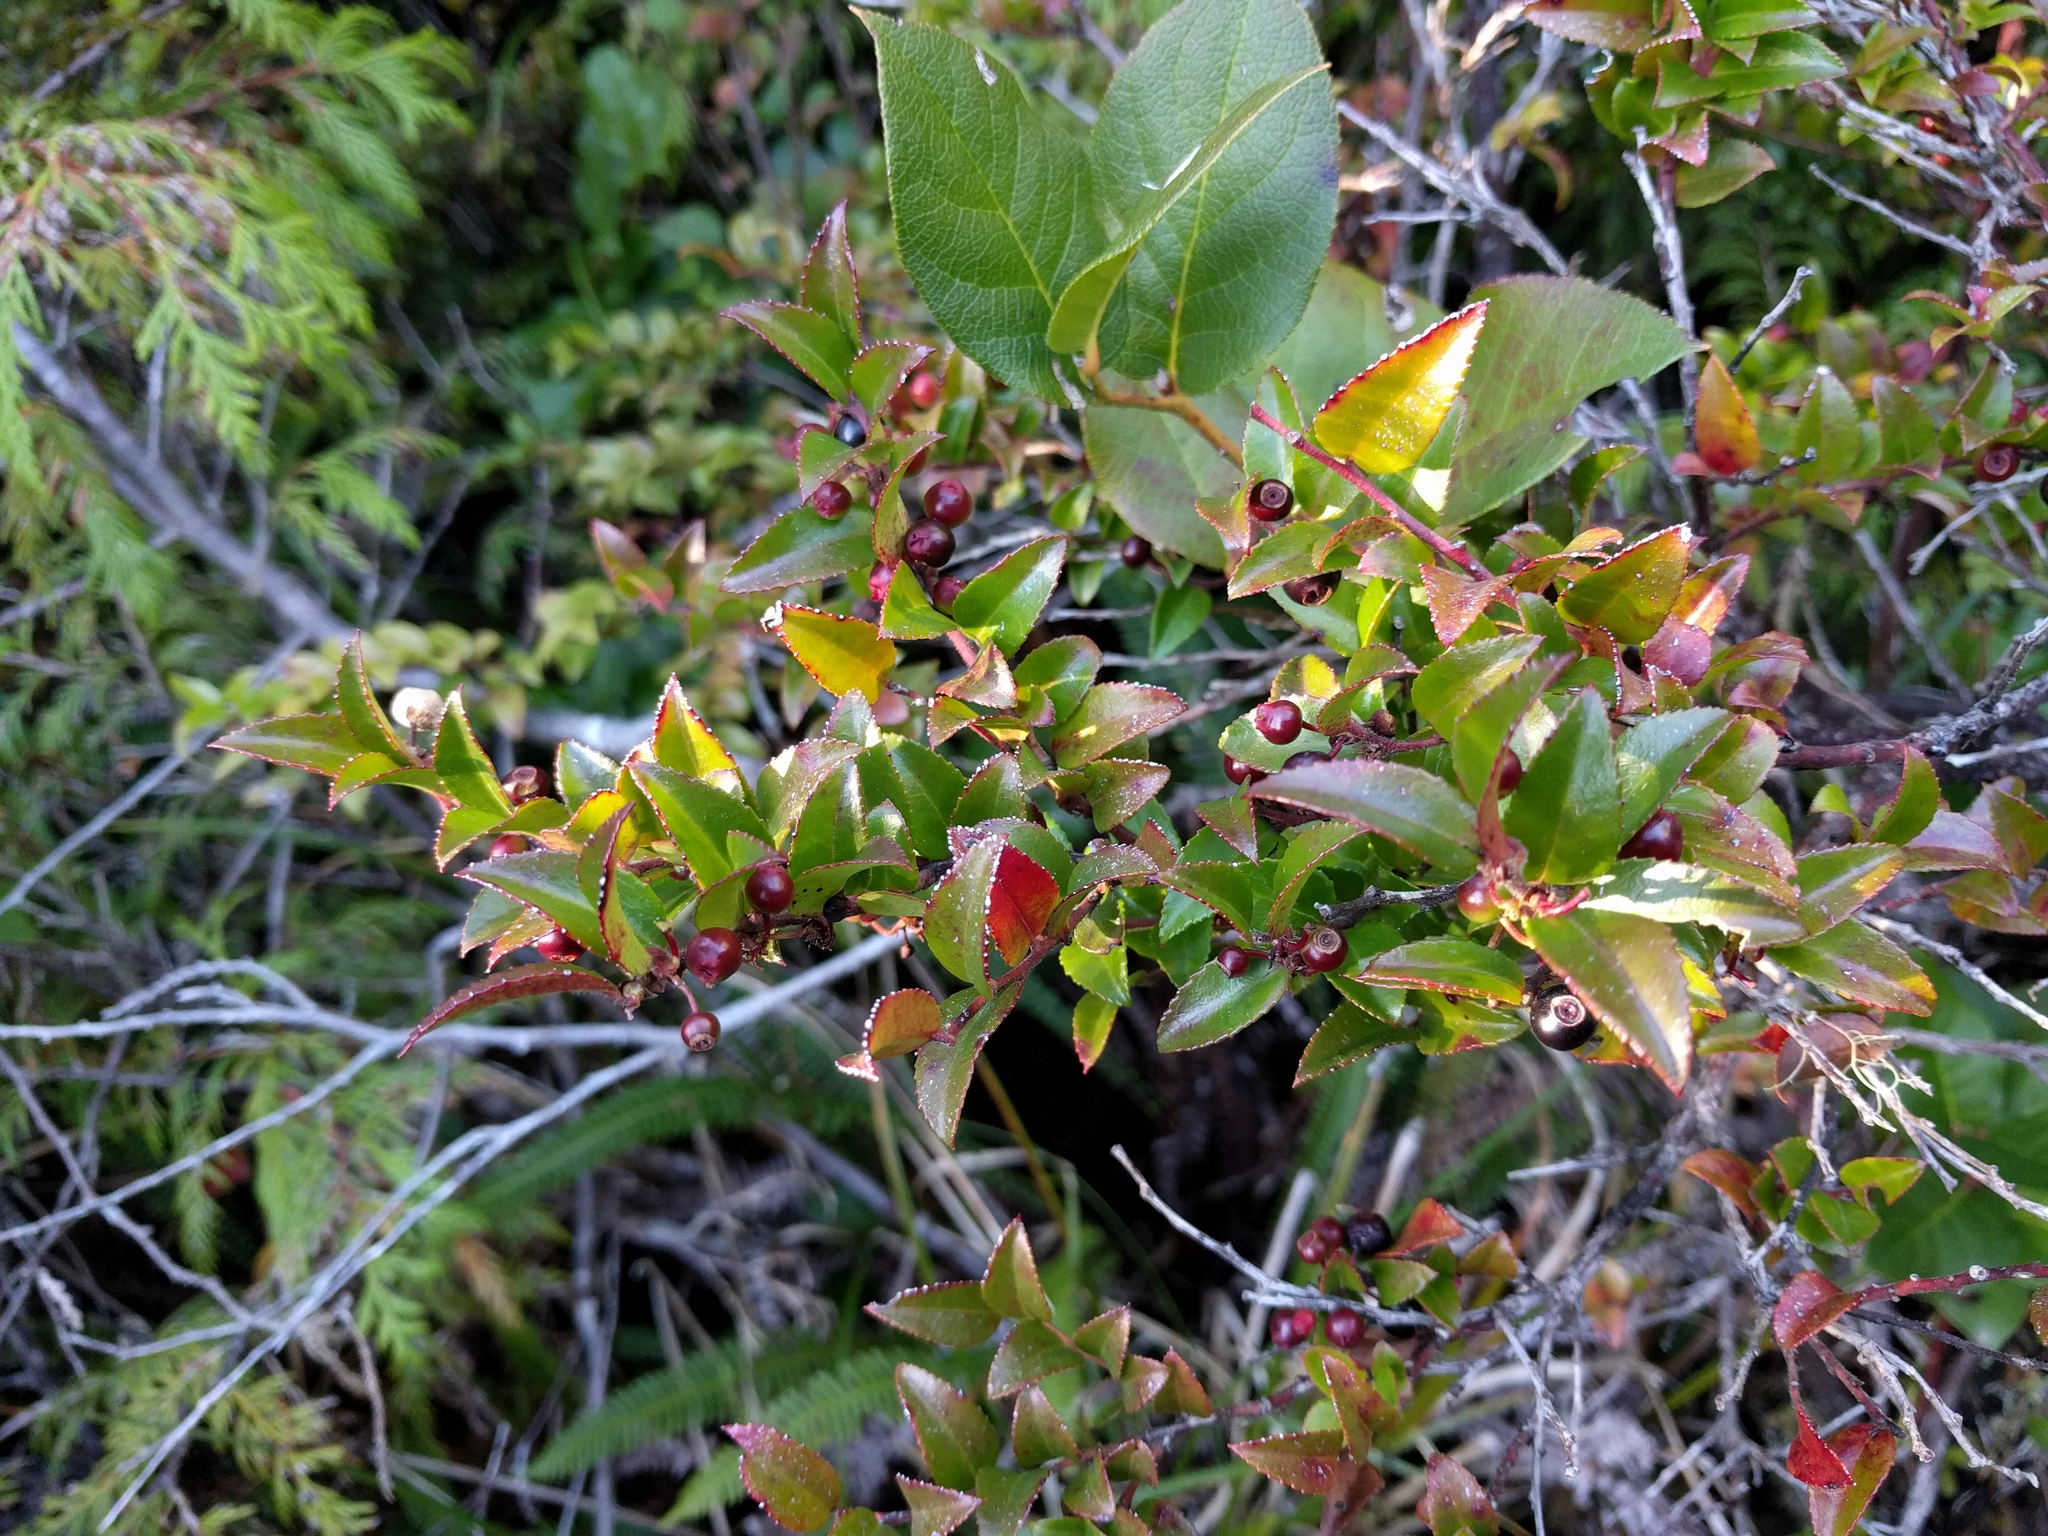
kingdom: Plantae
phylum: Tracheophyta
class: Magnoliopsida
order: Ericales
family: Ericaceae
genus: Vaccinium
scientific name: Vaccinium ovatum
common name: California-huckleberry
